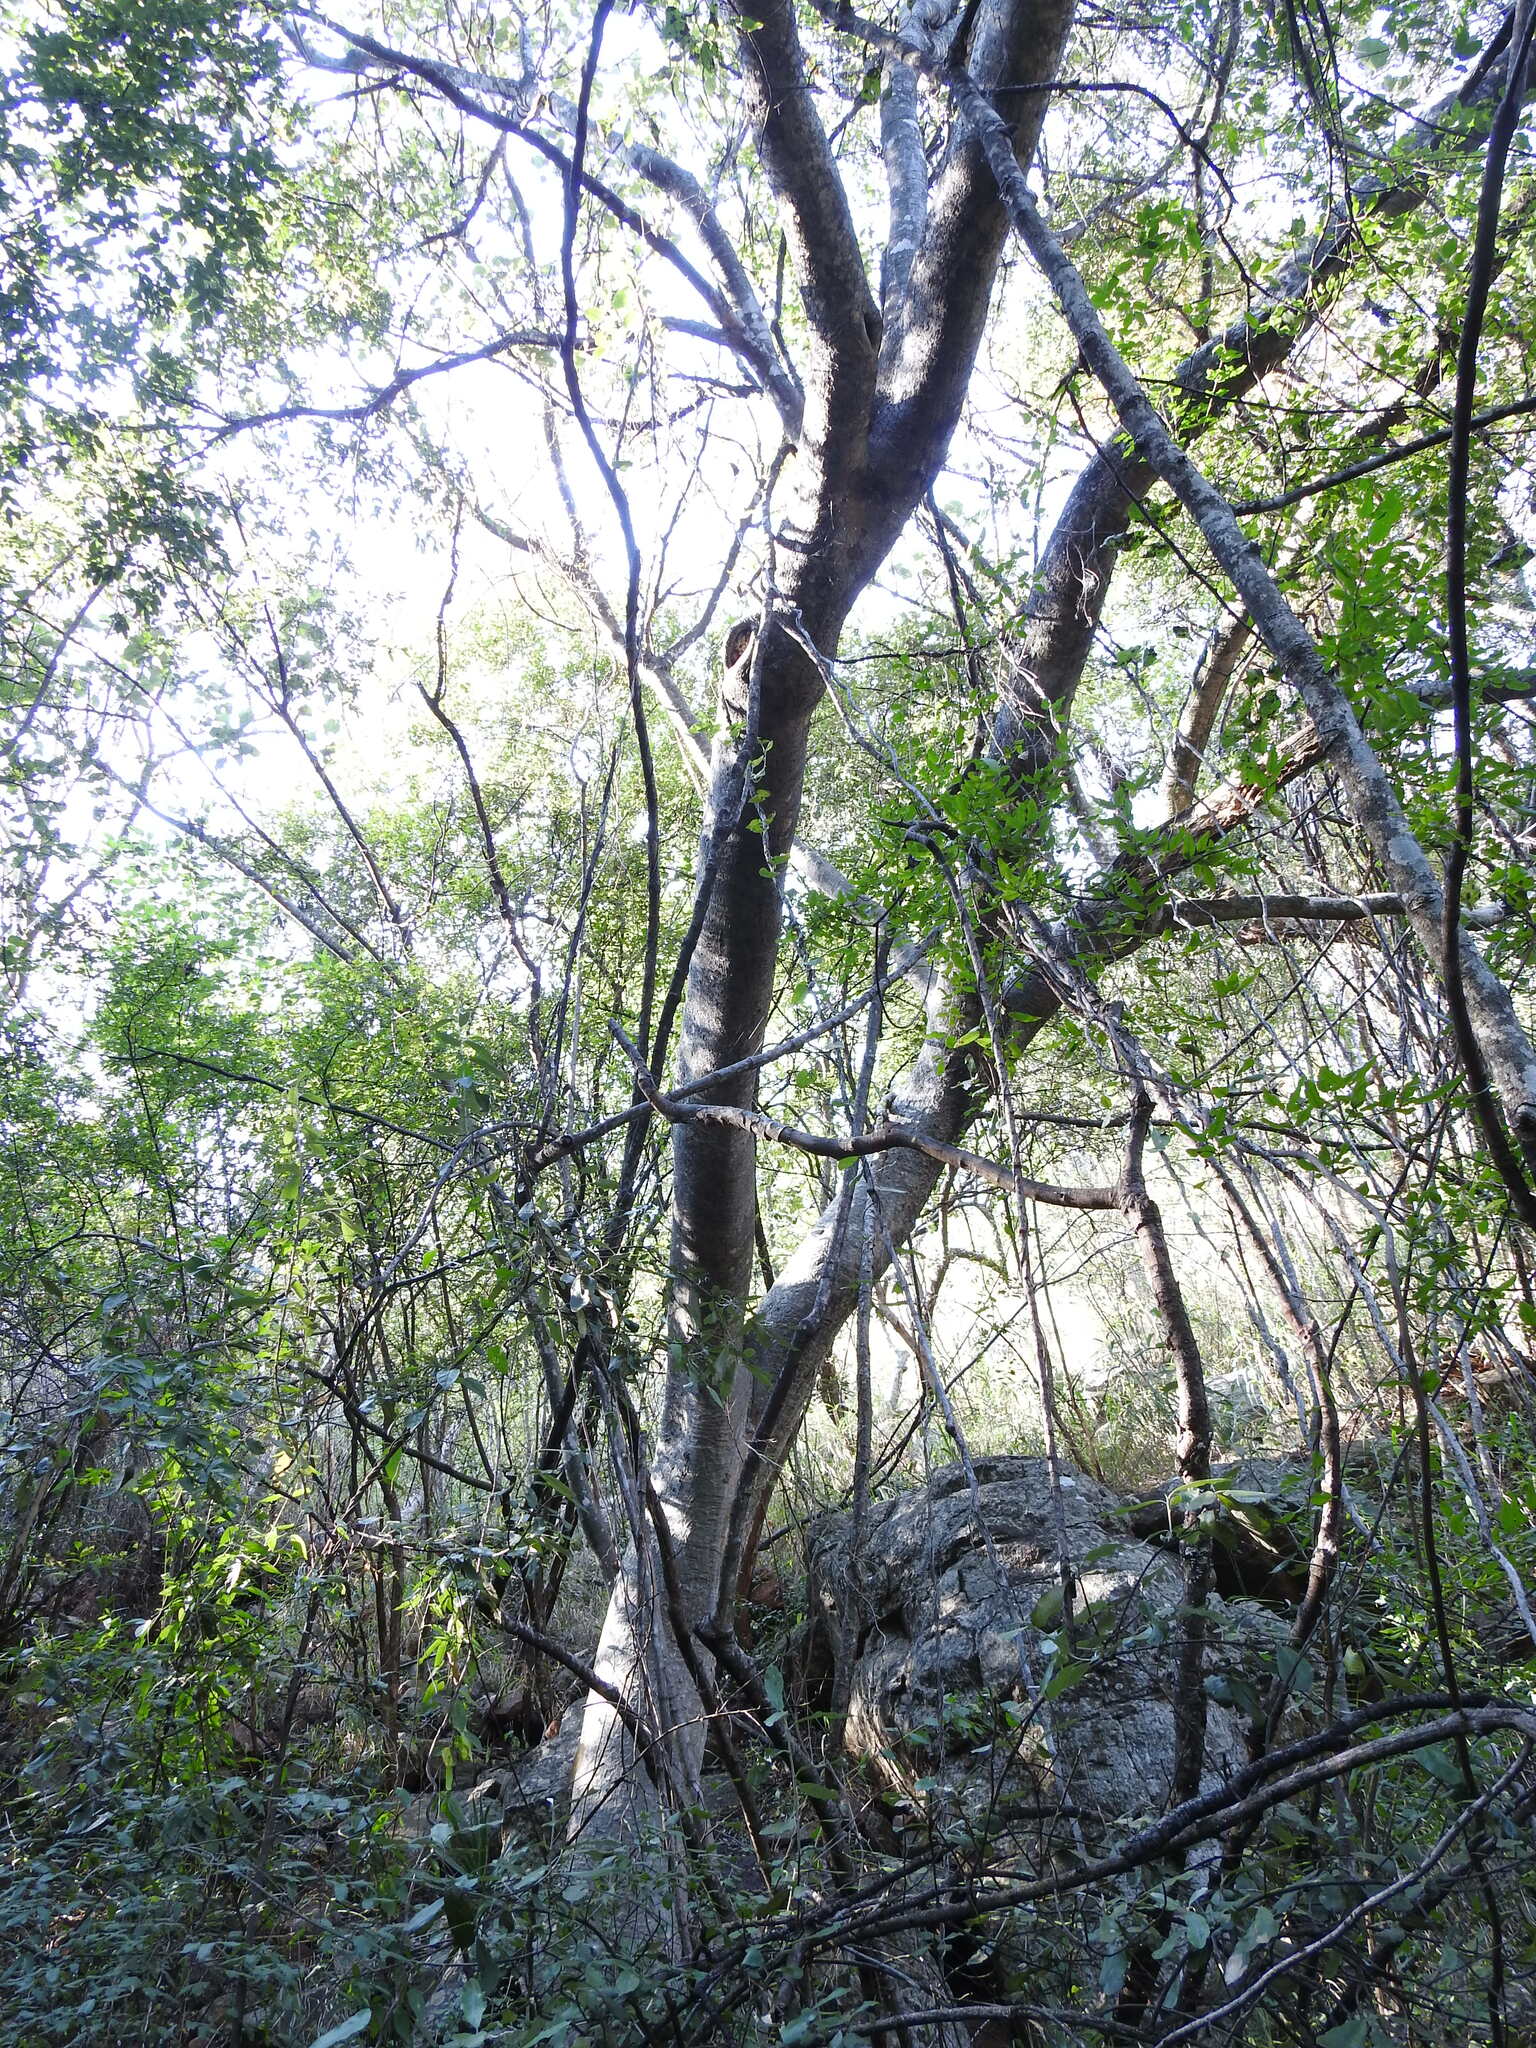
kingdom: Plantae
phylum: Tracheophyta
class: Magnoliopsida
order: Rosales
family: Moraceae
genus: Ficus
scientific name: Ficus abutilifolia
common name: Large-leaved rock fig
